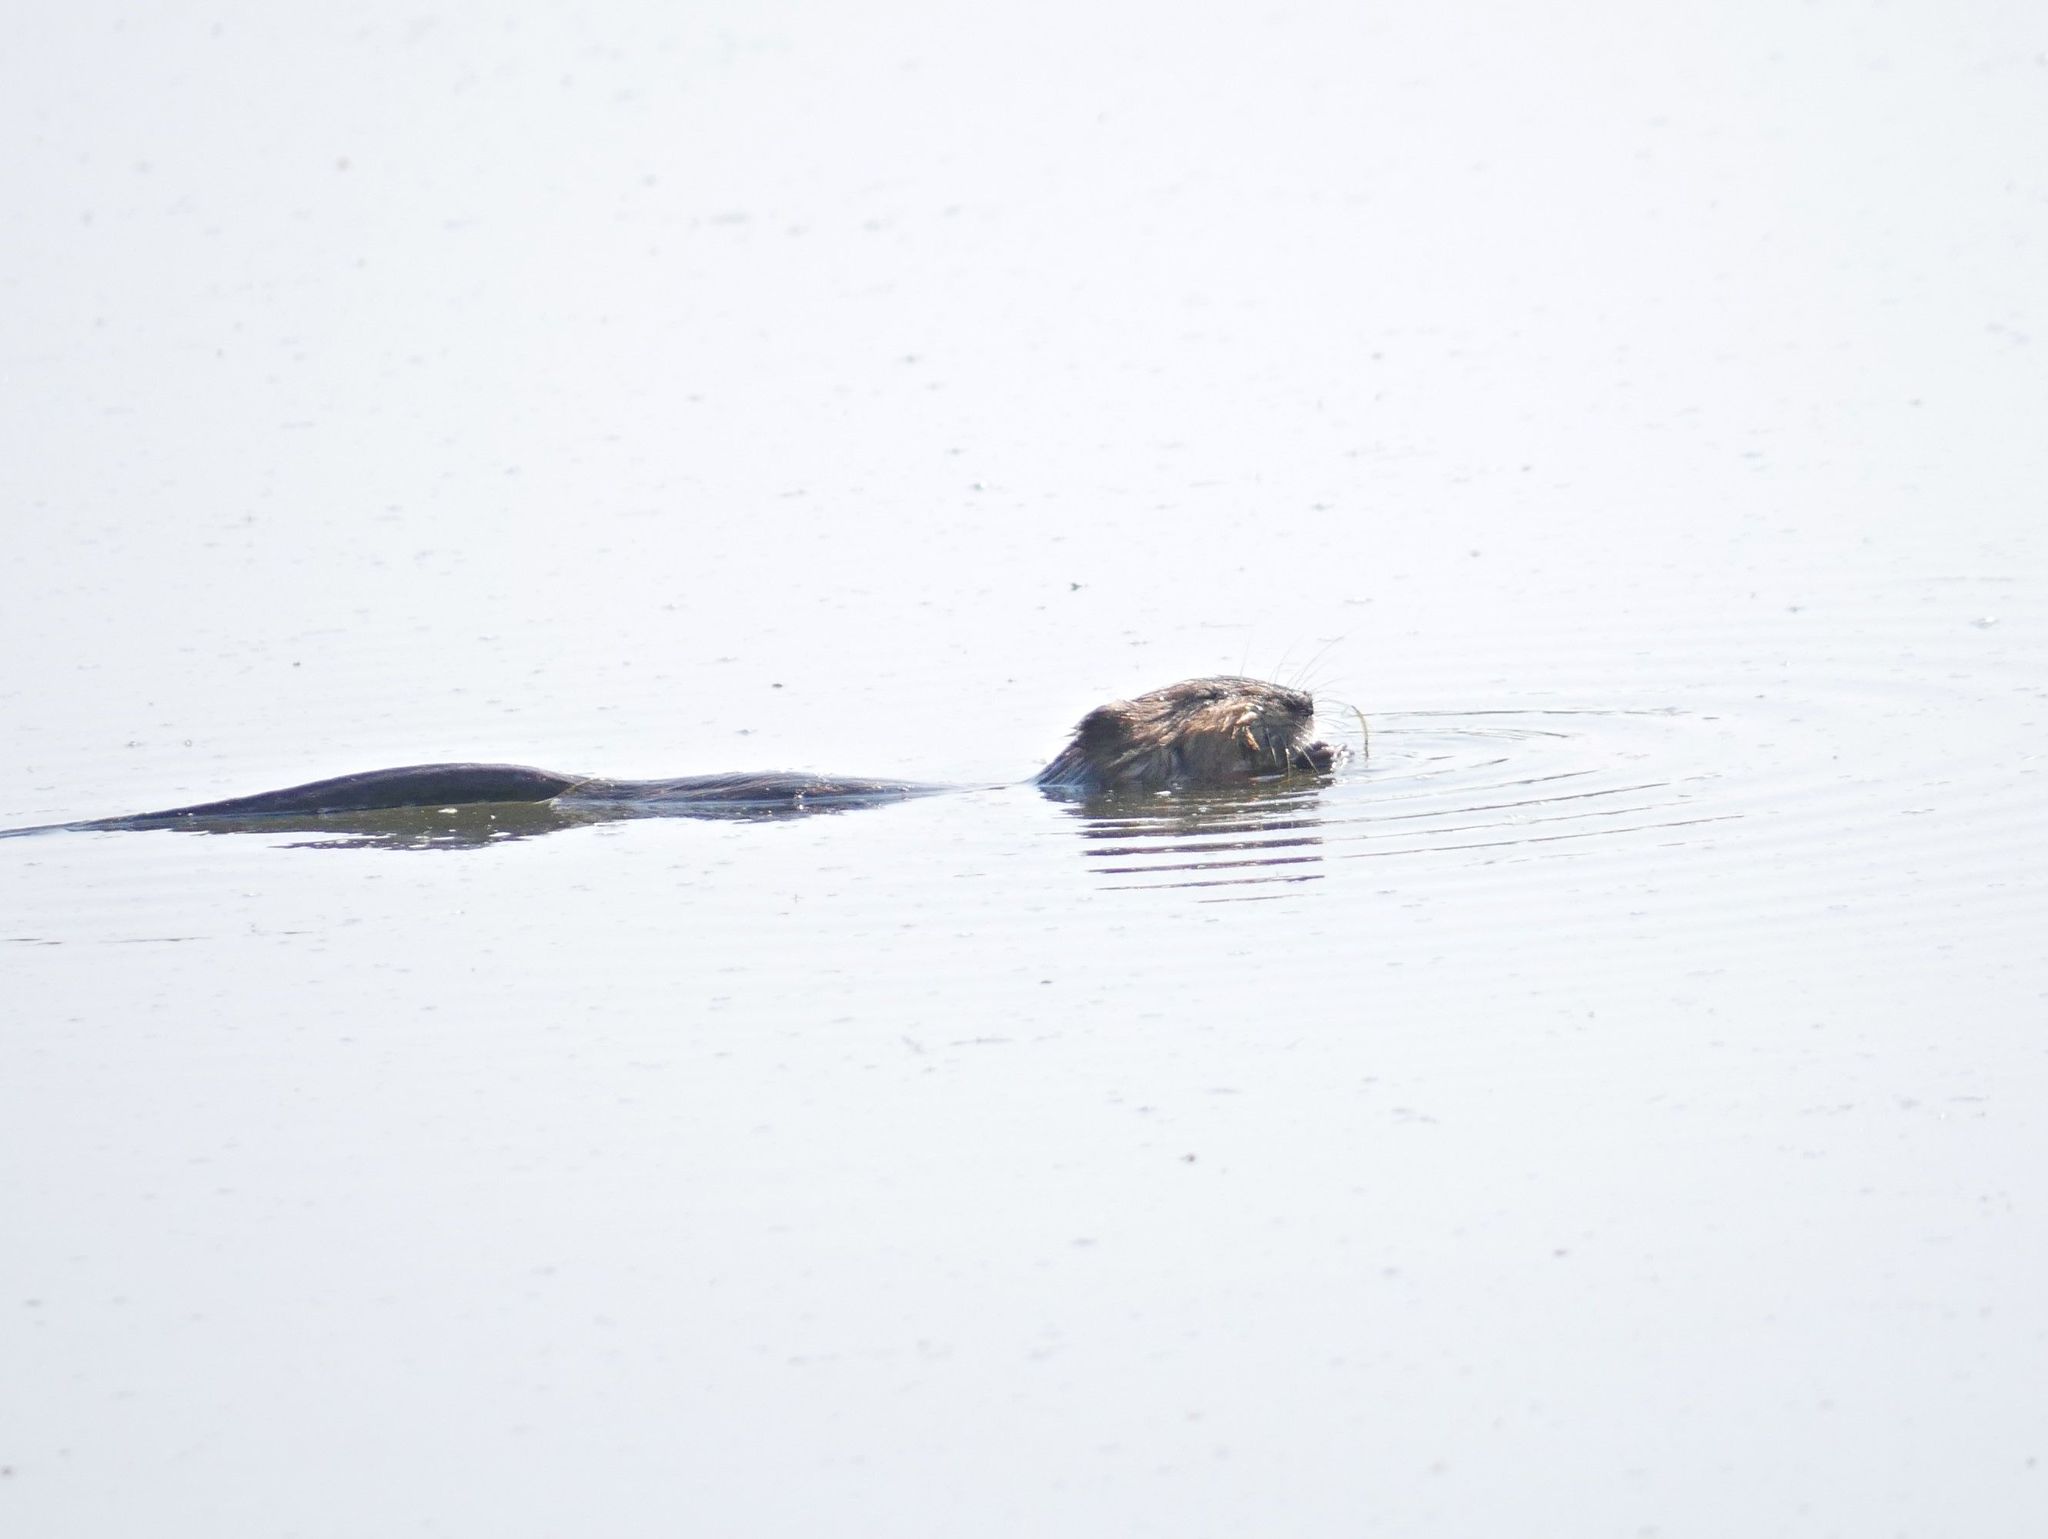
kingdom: Animalia
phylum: Chordata
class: Mammalia
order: Rodentia
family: Cricetidae
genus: Ondatra
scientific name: Ondatra zibethicus
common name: Muskrat
